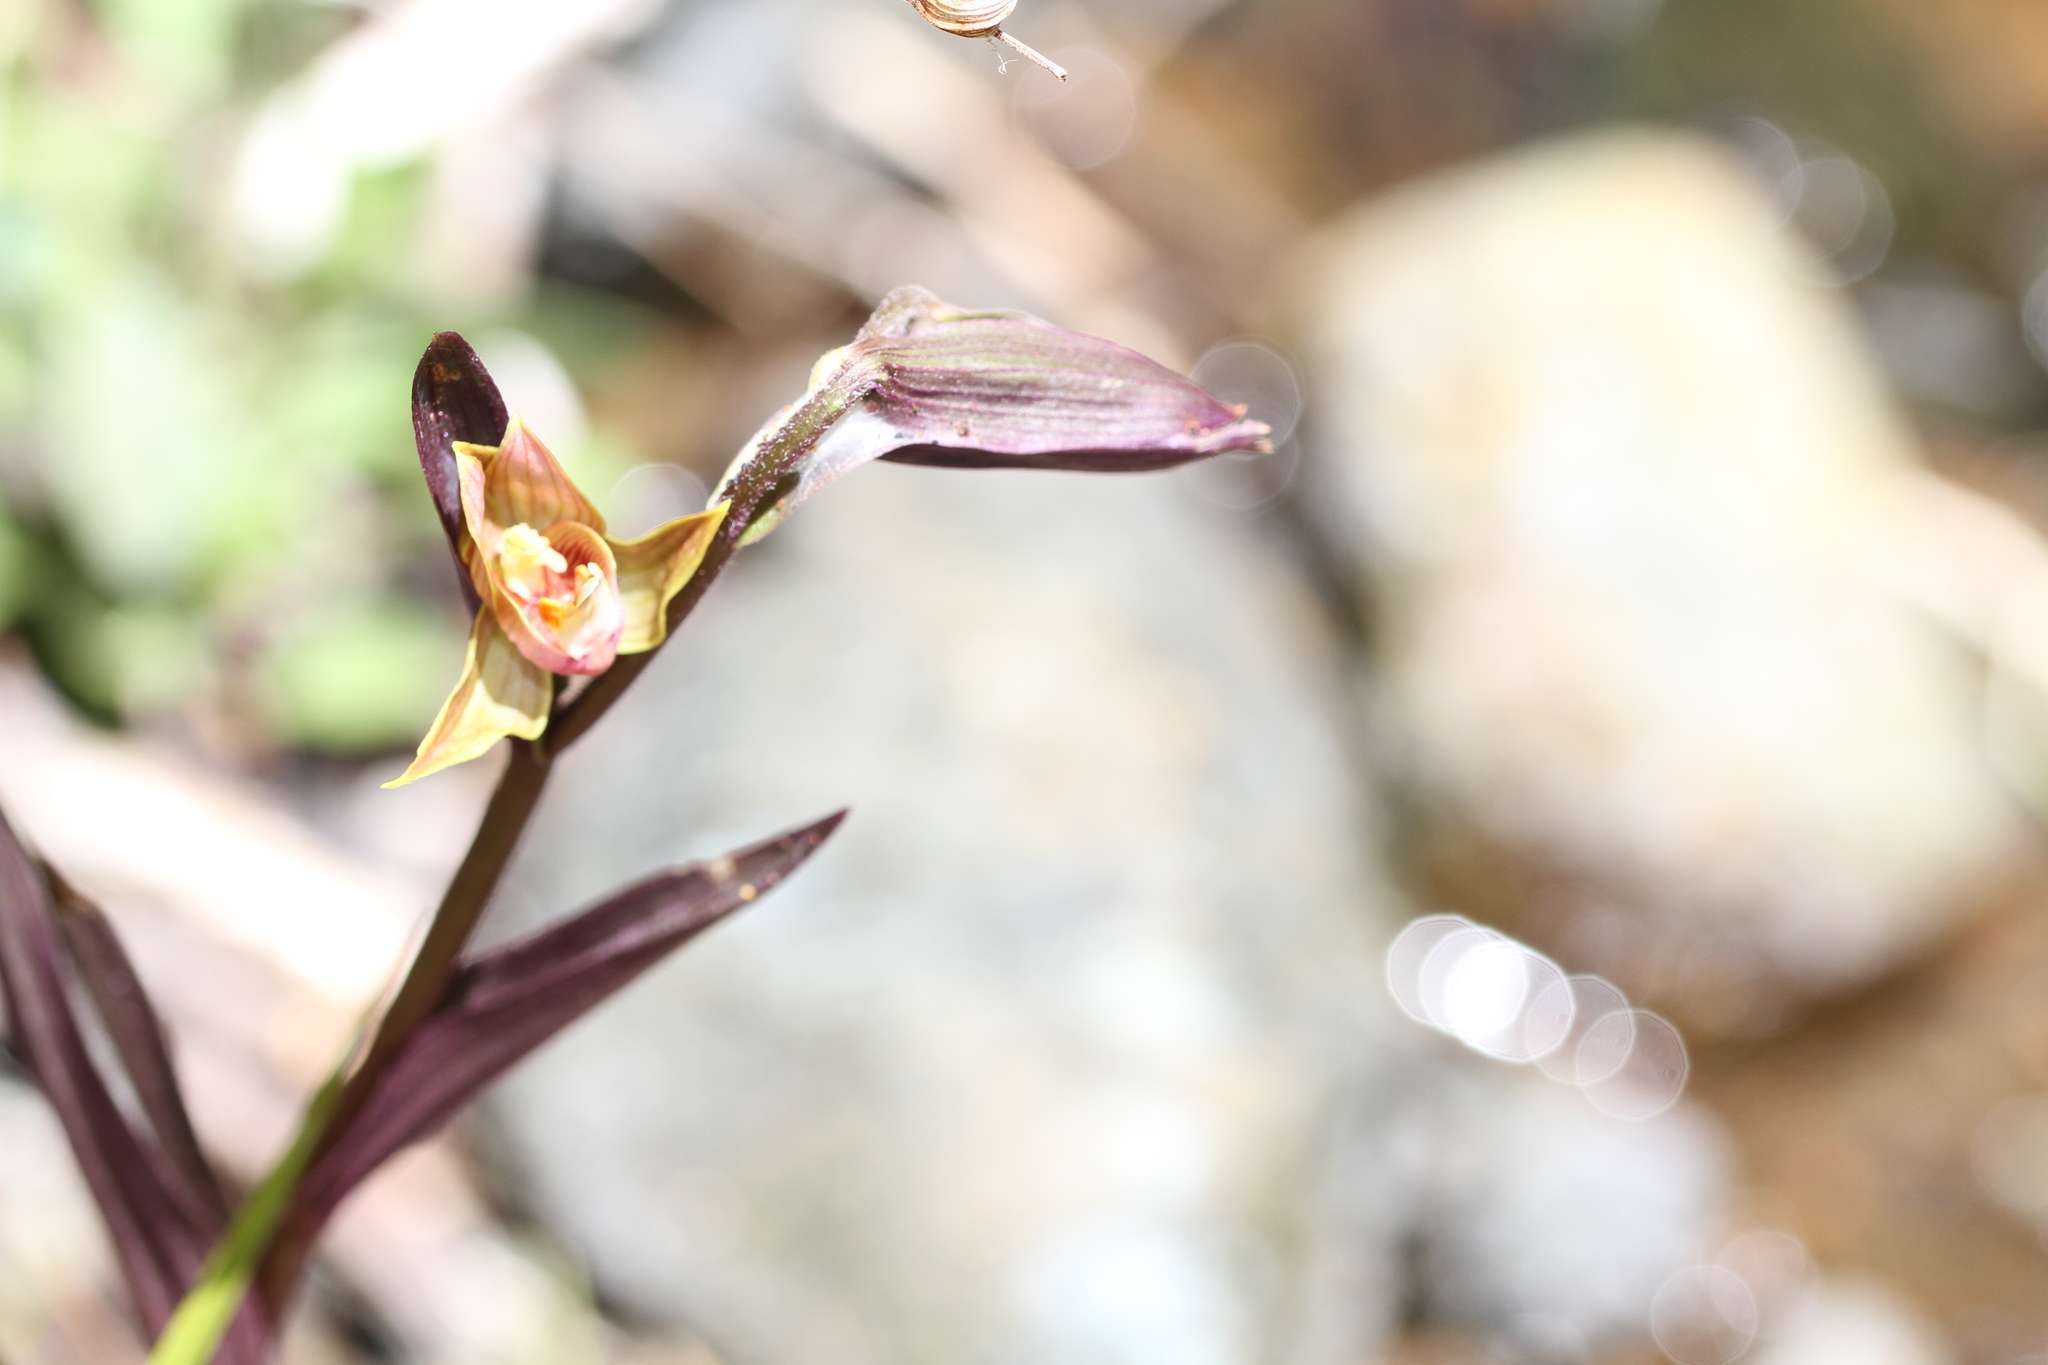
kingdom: Plantae
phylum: Tracheophyta
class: Liliopsida
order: Asparagales
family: Orchidaceae
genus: Epipactis
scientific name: Epipactis gigantea
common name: Chatterbox
